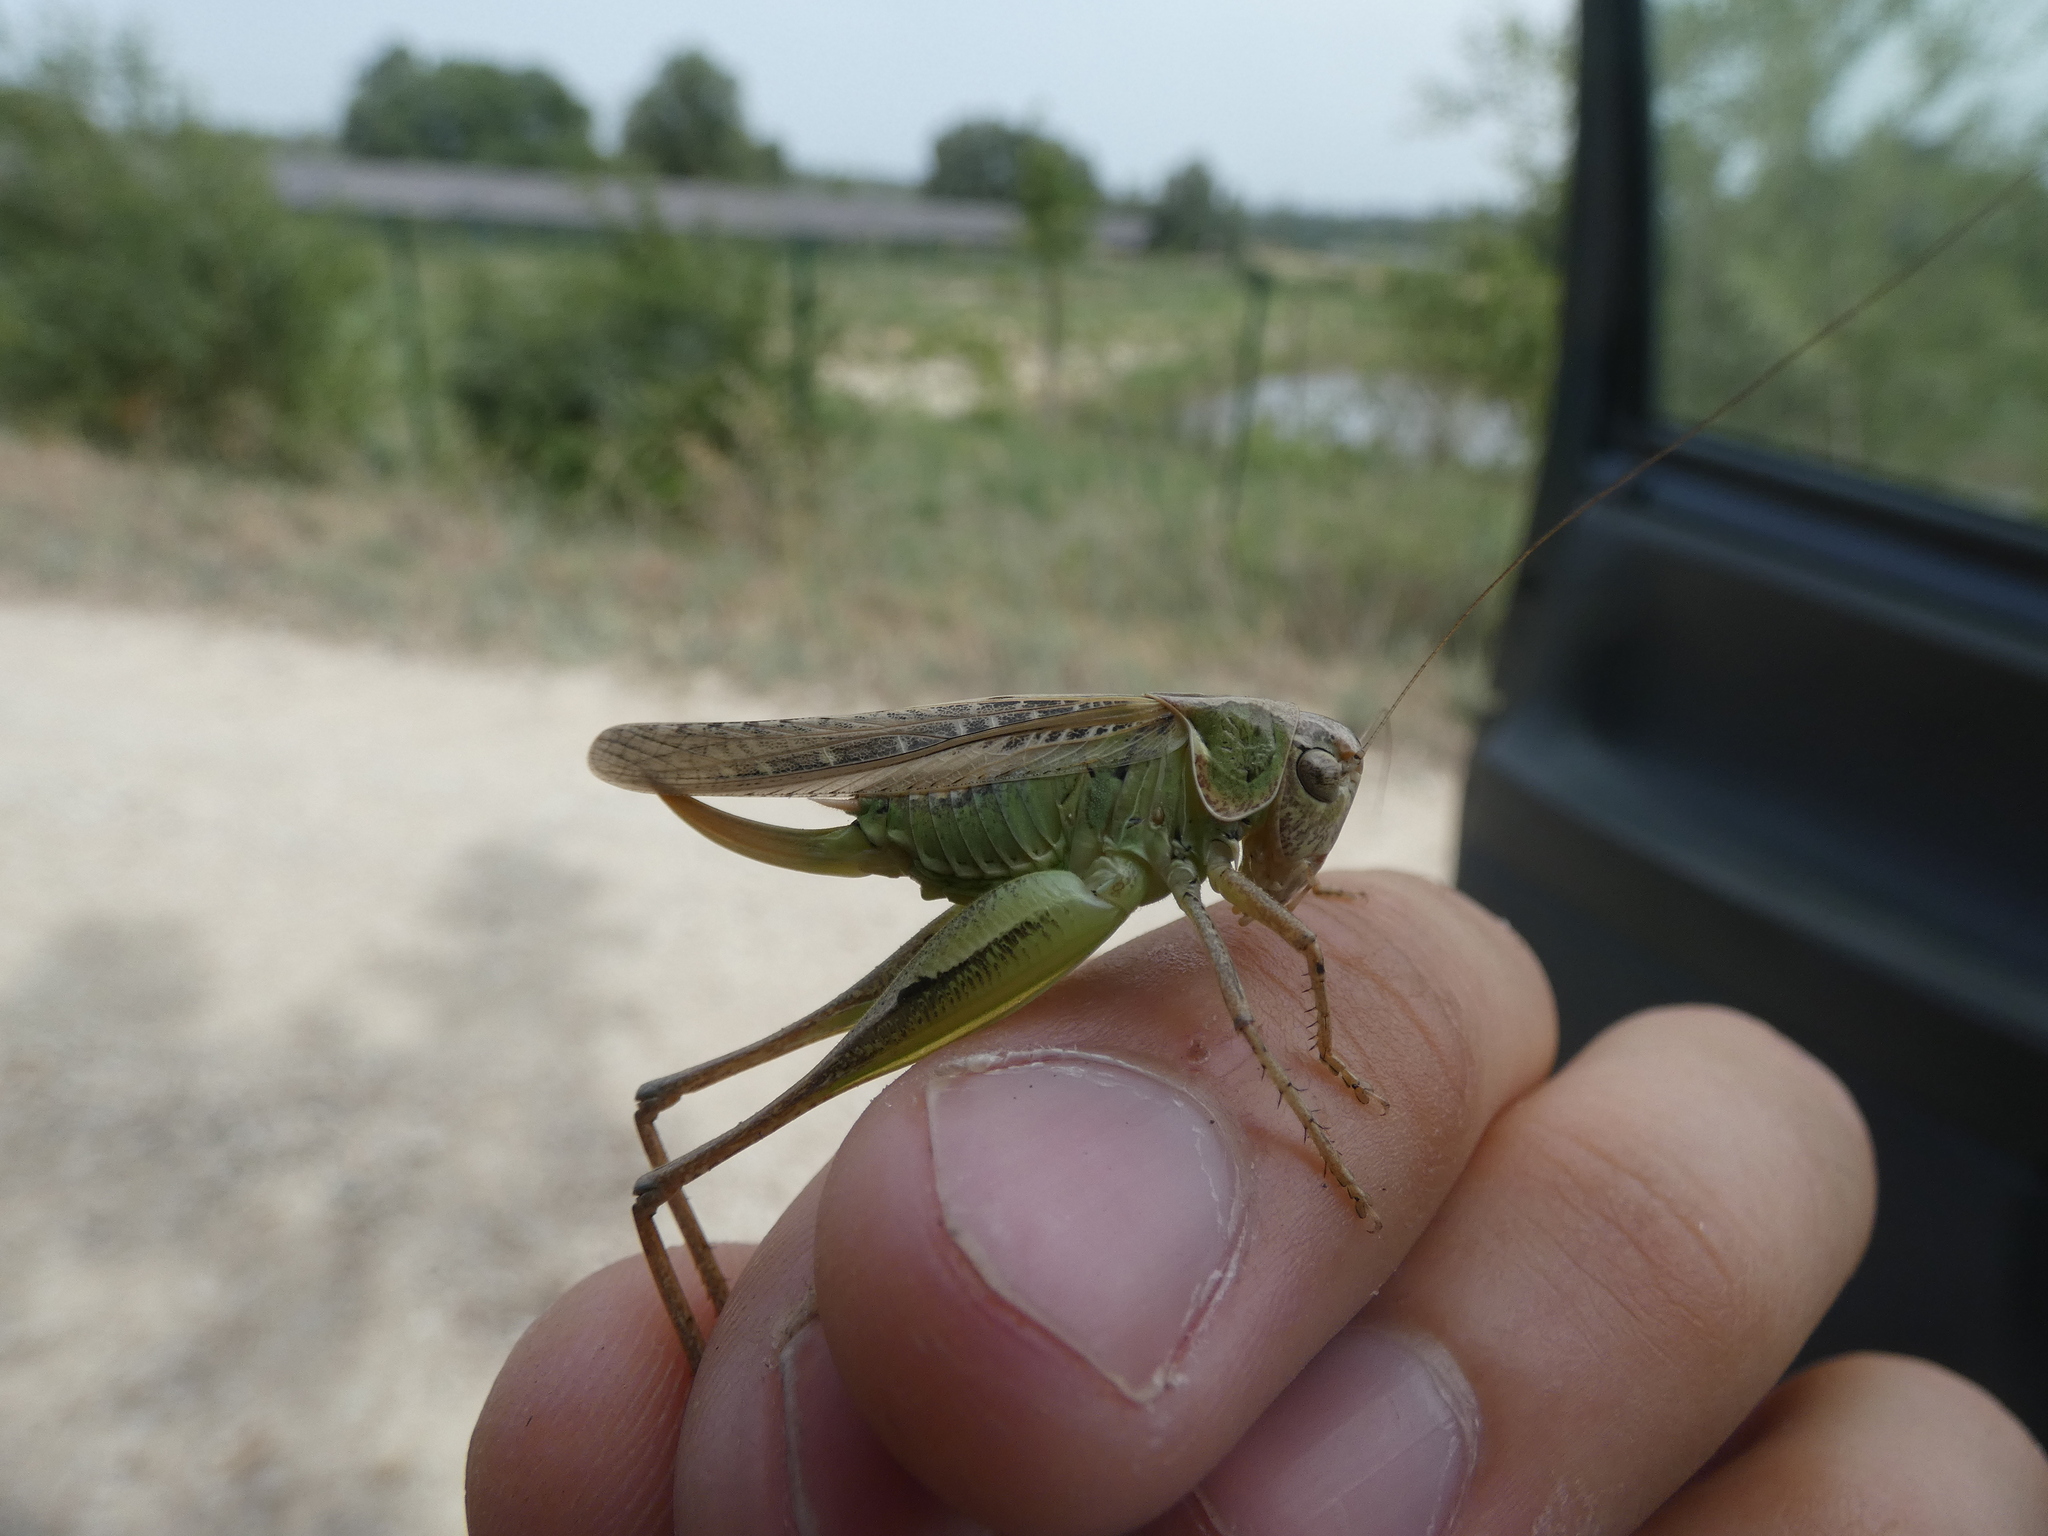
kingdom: Animalia
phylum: Arthropoda
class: Insecta
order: Orthoptera
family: Tettigoniidae
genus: Platycleis
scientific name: Platycleis affinis
